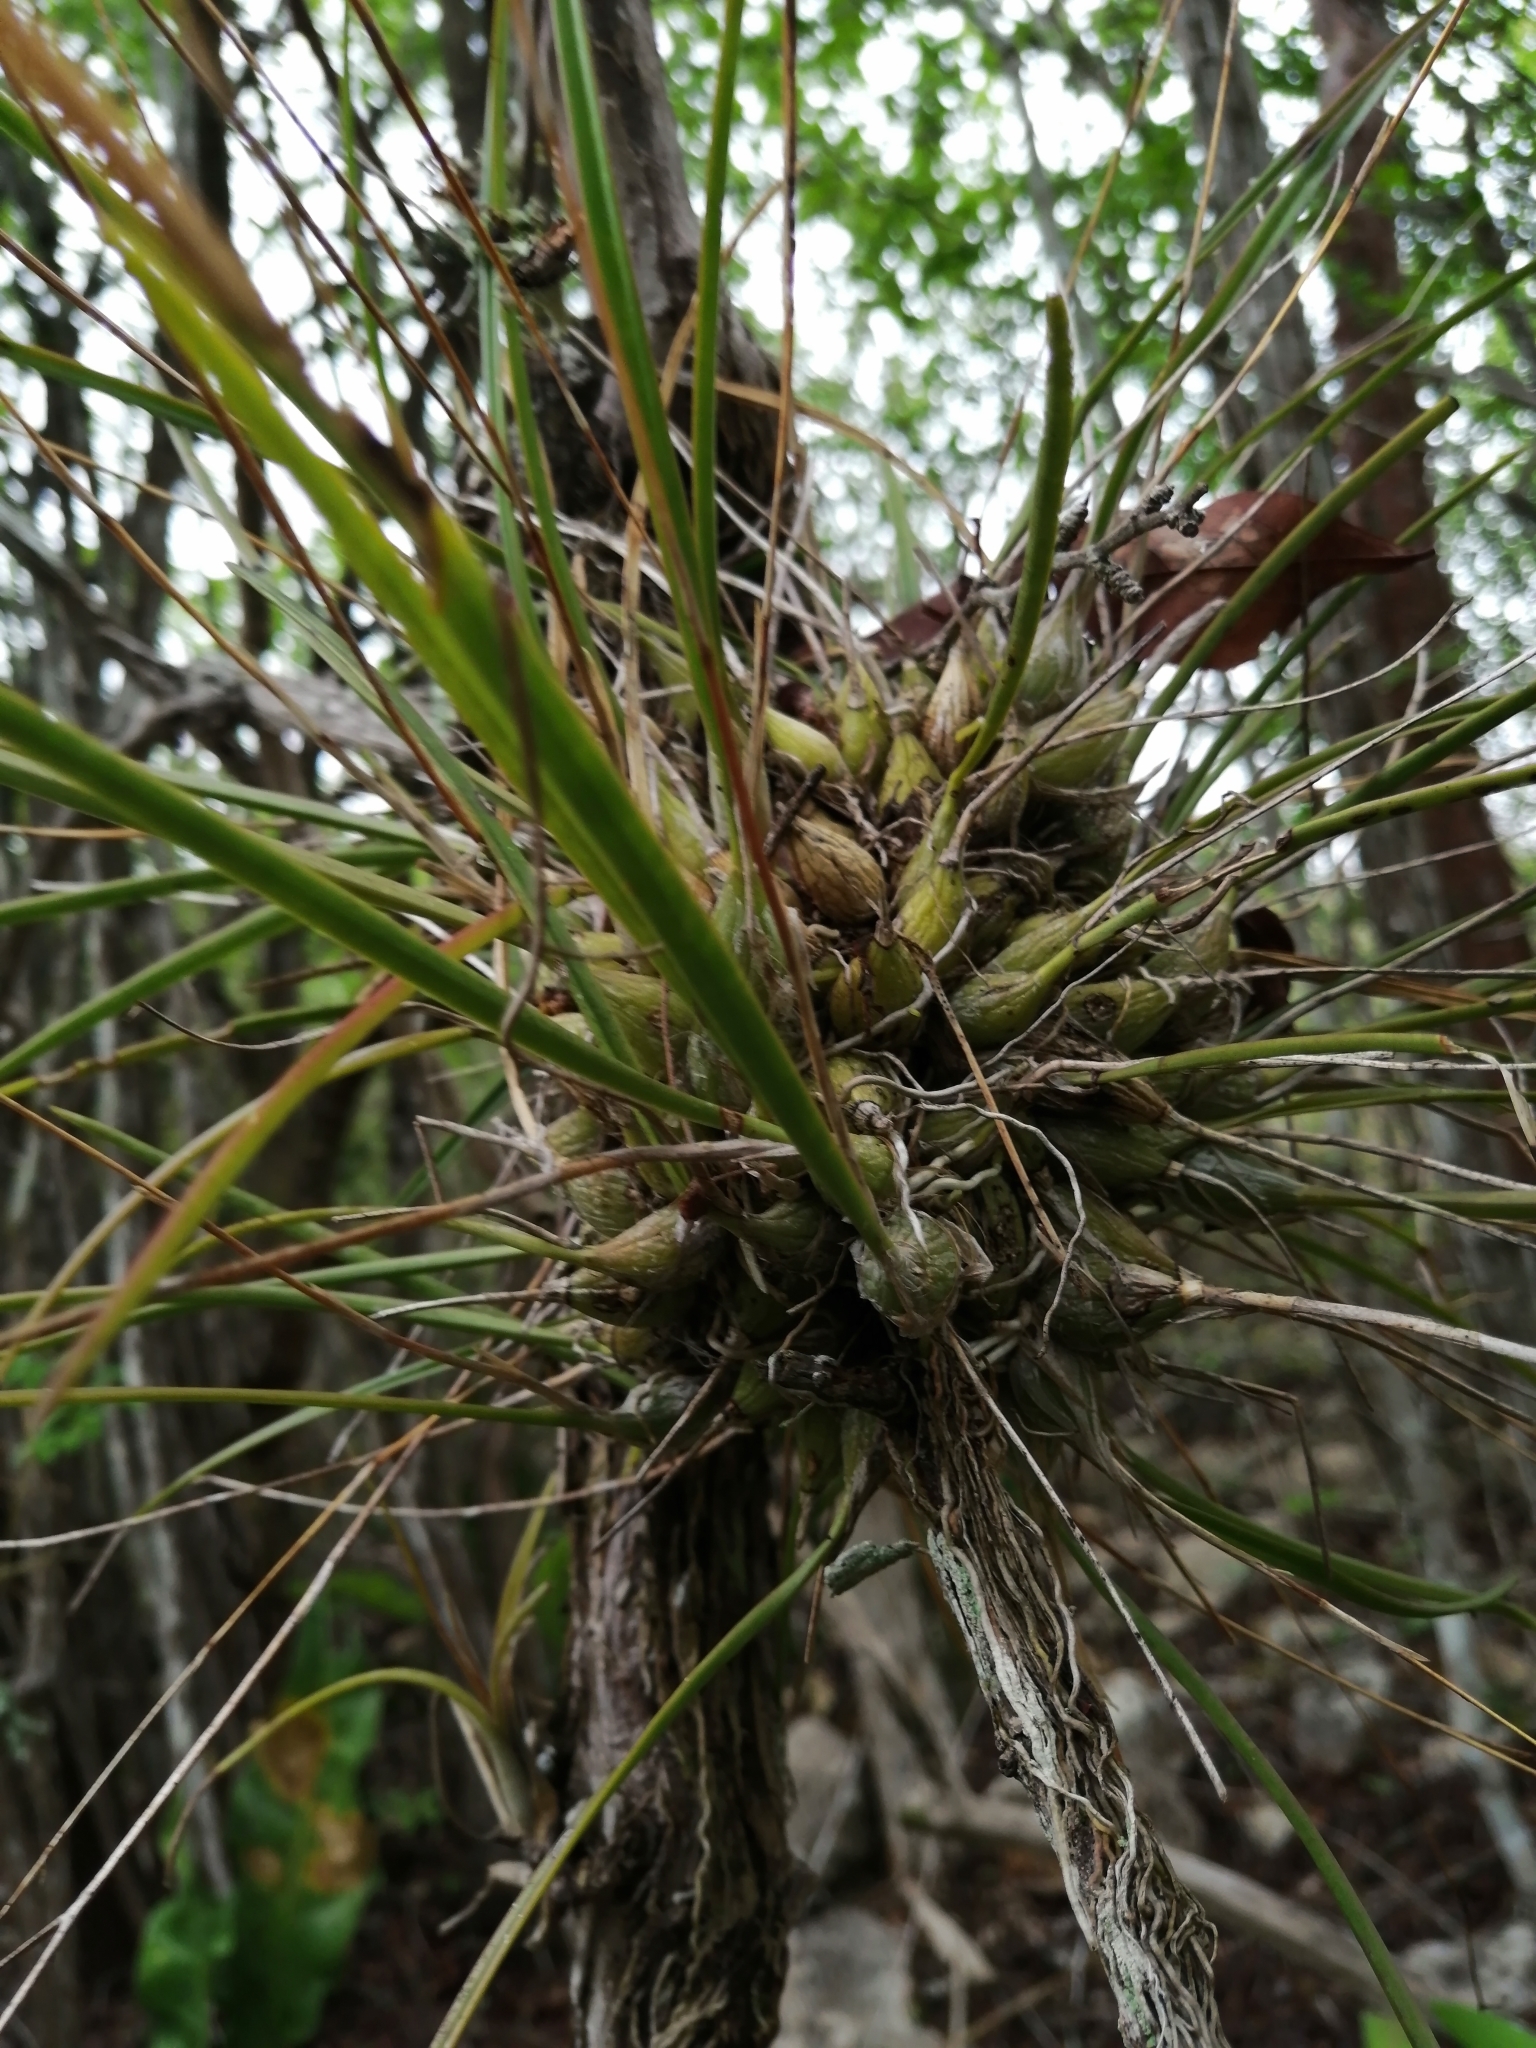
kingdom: Plantae
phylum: Tracheophyta
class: Liliopsida
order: Asparagales
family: Orchidaceae
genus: Encyclia
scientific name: Encyclia nematocaulon
